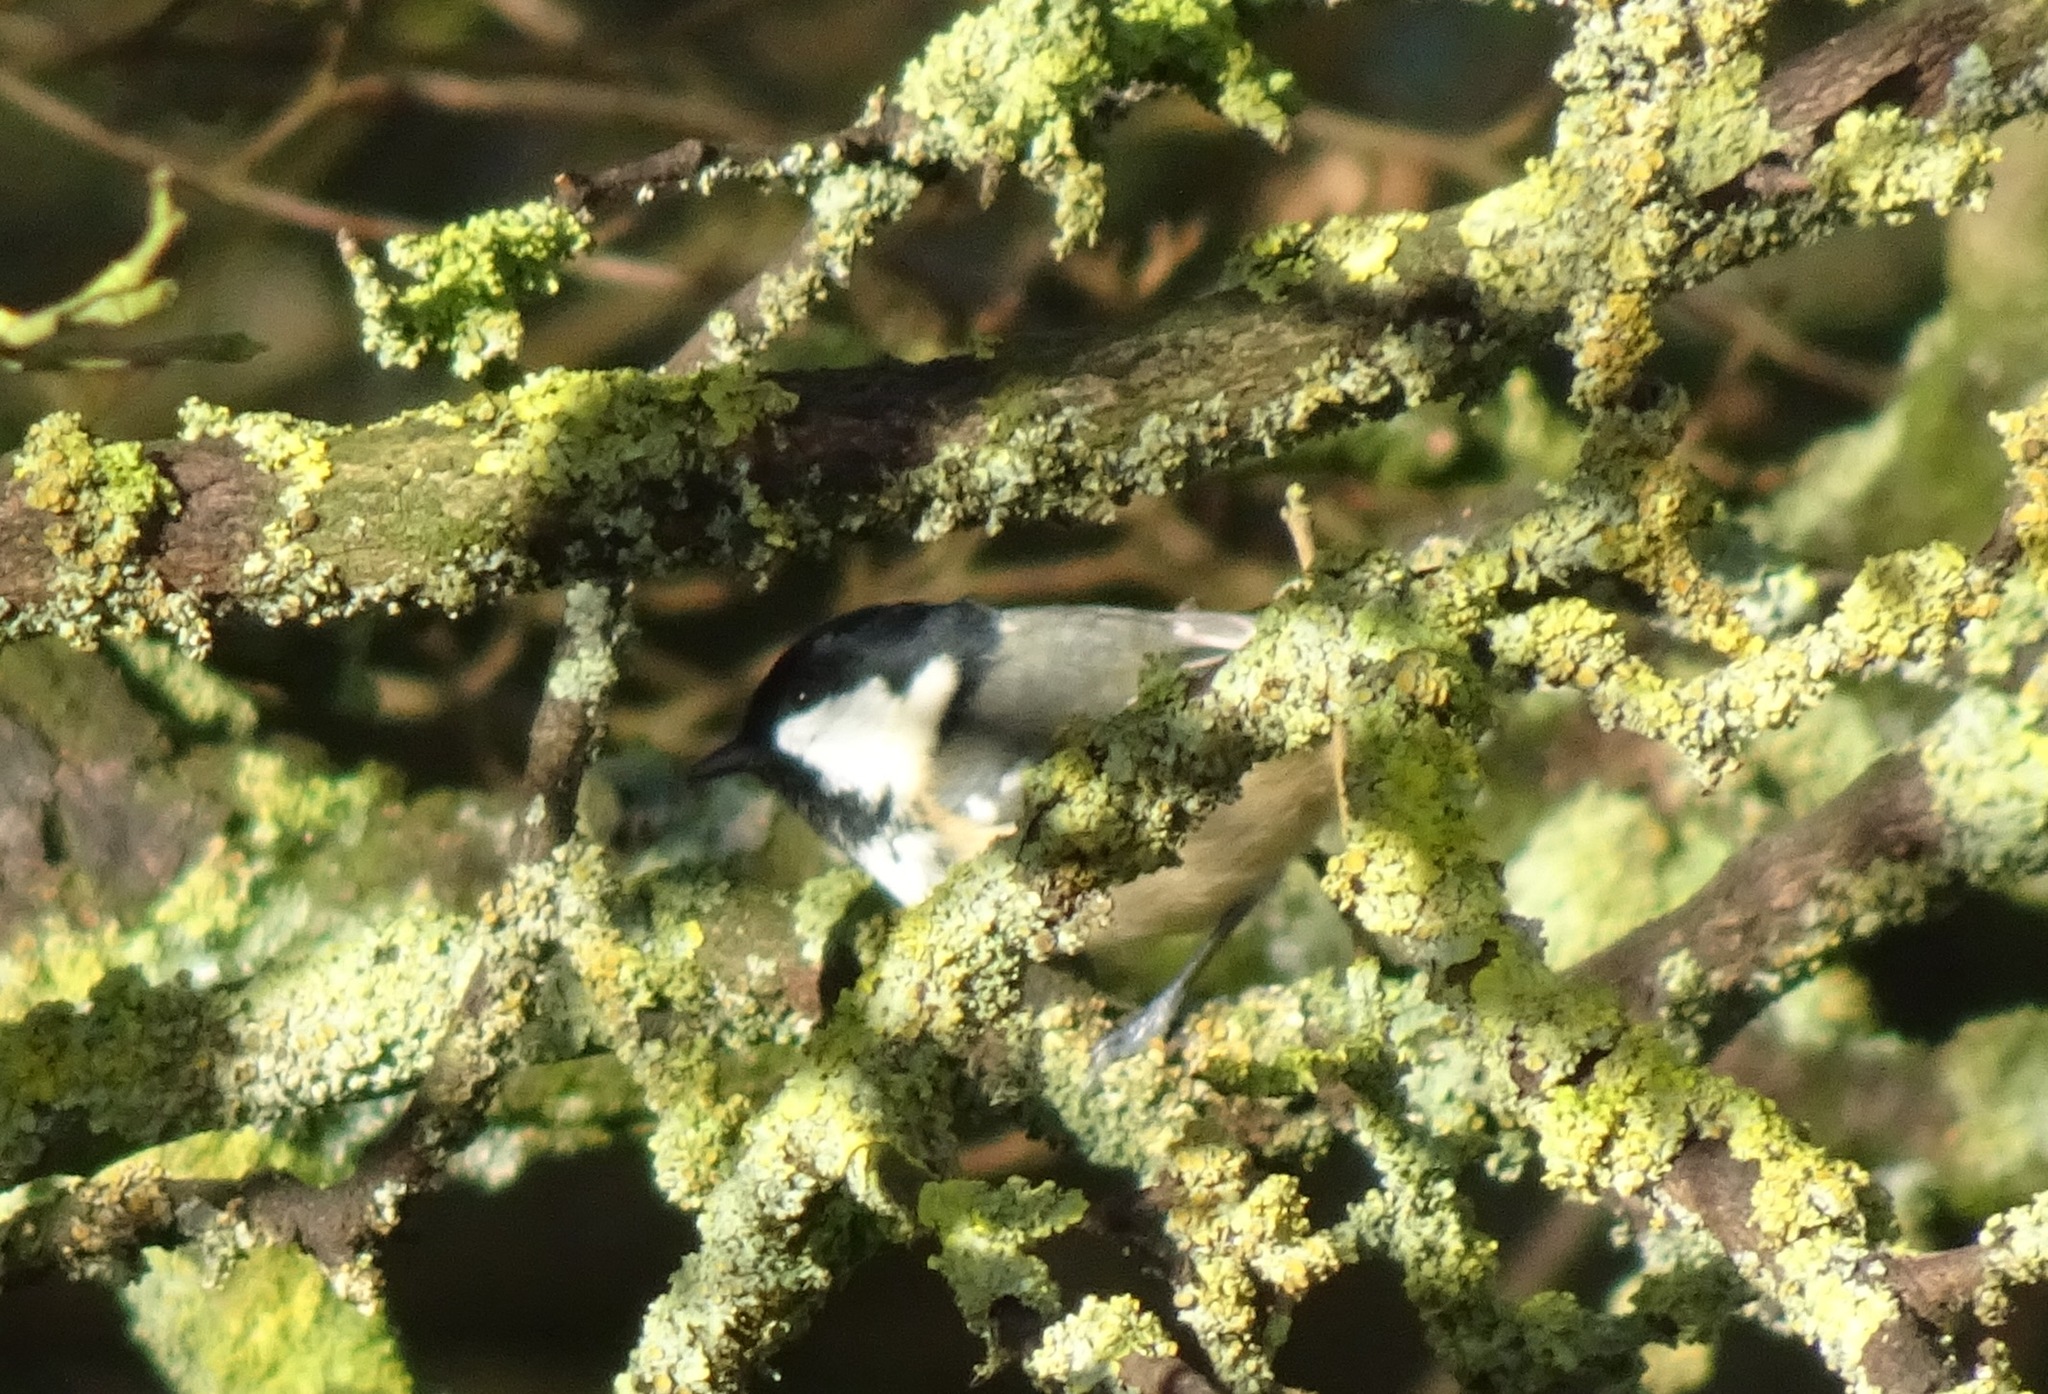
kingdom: Animalia
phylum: Chordata
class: Aves
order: Passeriformes
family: Paridae
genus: Periparus
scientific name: Periparus ater
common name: Coal tit
